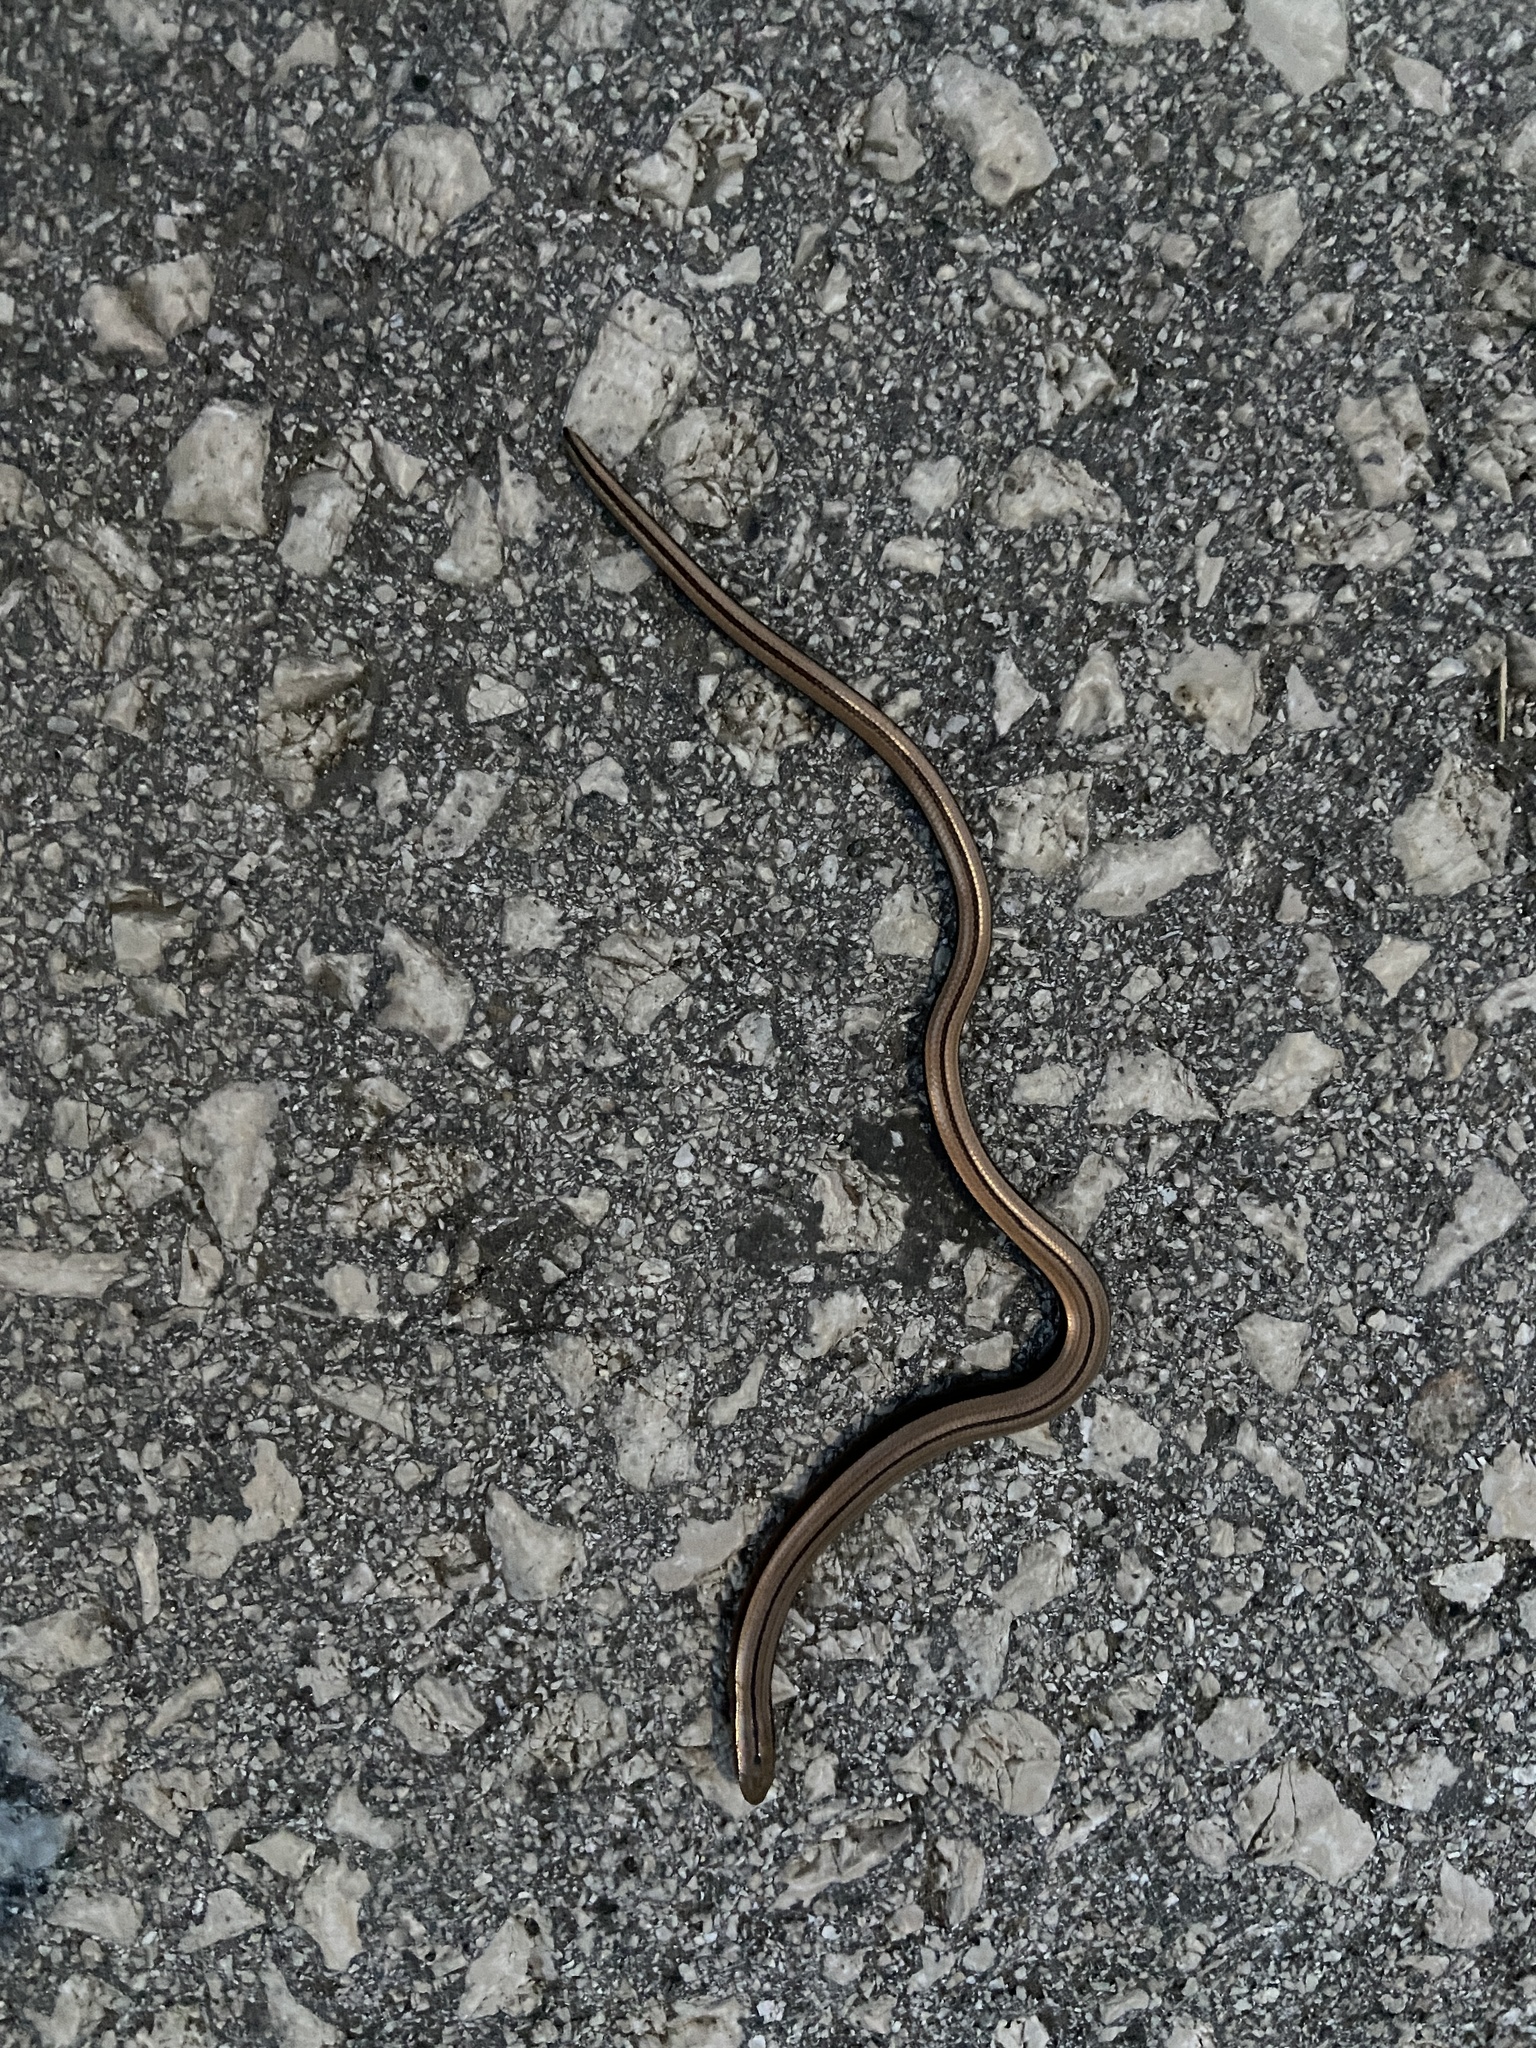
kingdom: Animalia
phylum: Chordata
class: Squamata
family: Anguidae
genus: Anguis
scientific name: Anguis graeca
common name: Greek slow worm
